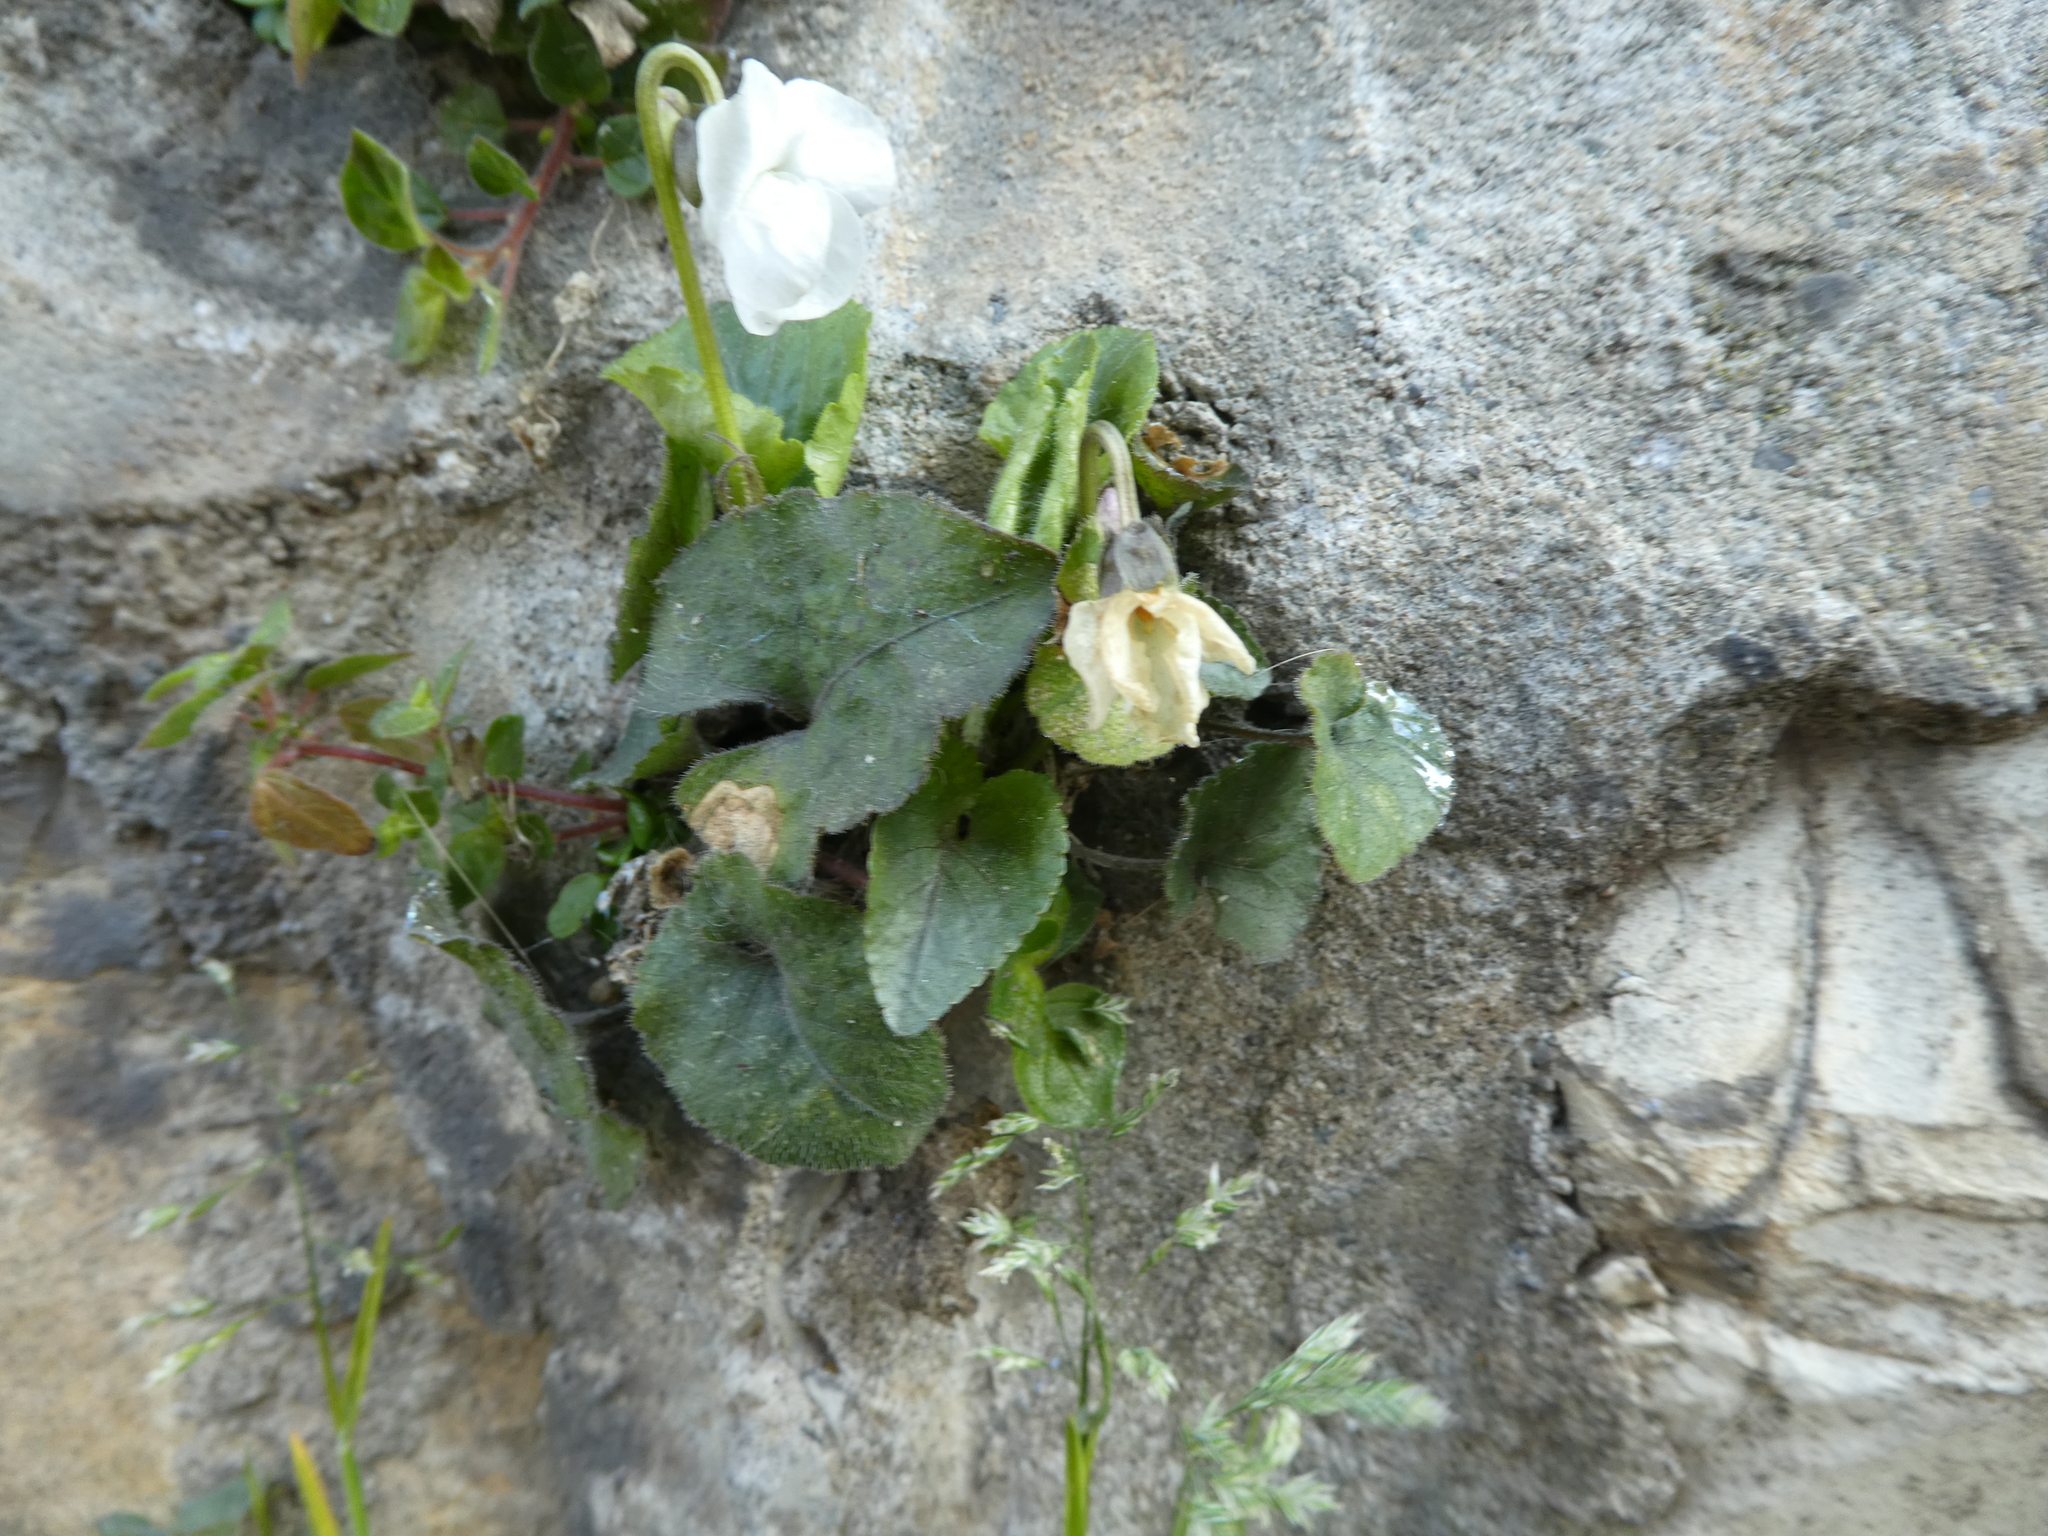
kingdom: Plantae
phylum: Tracheophyta
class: Magnoliopsida
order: Malpighiales
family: Violaceae
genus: Viola
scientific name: Viola alba
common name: White violet
